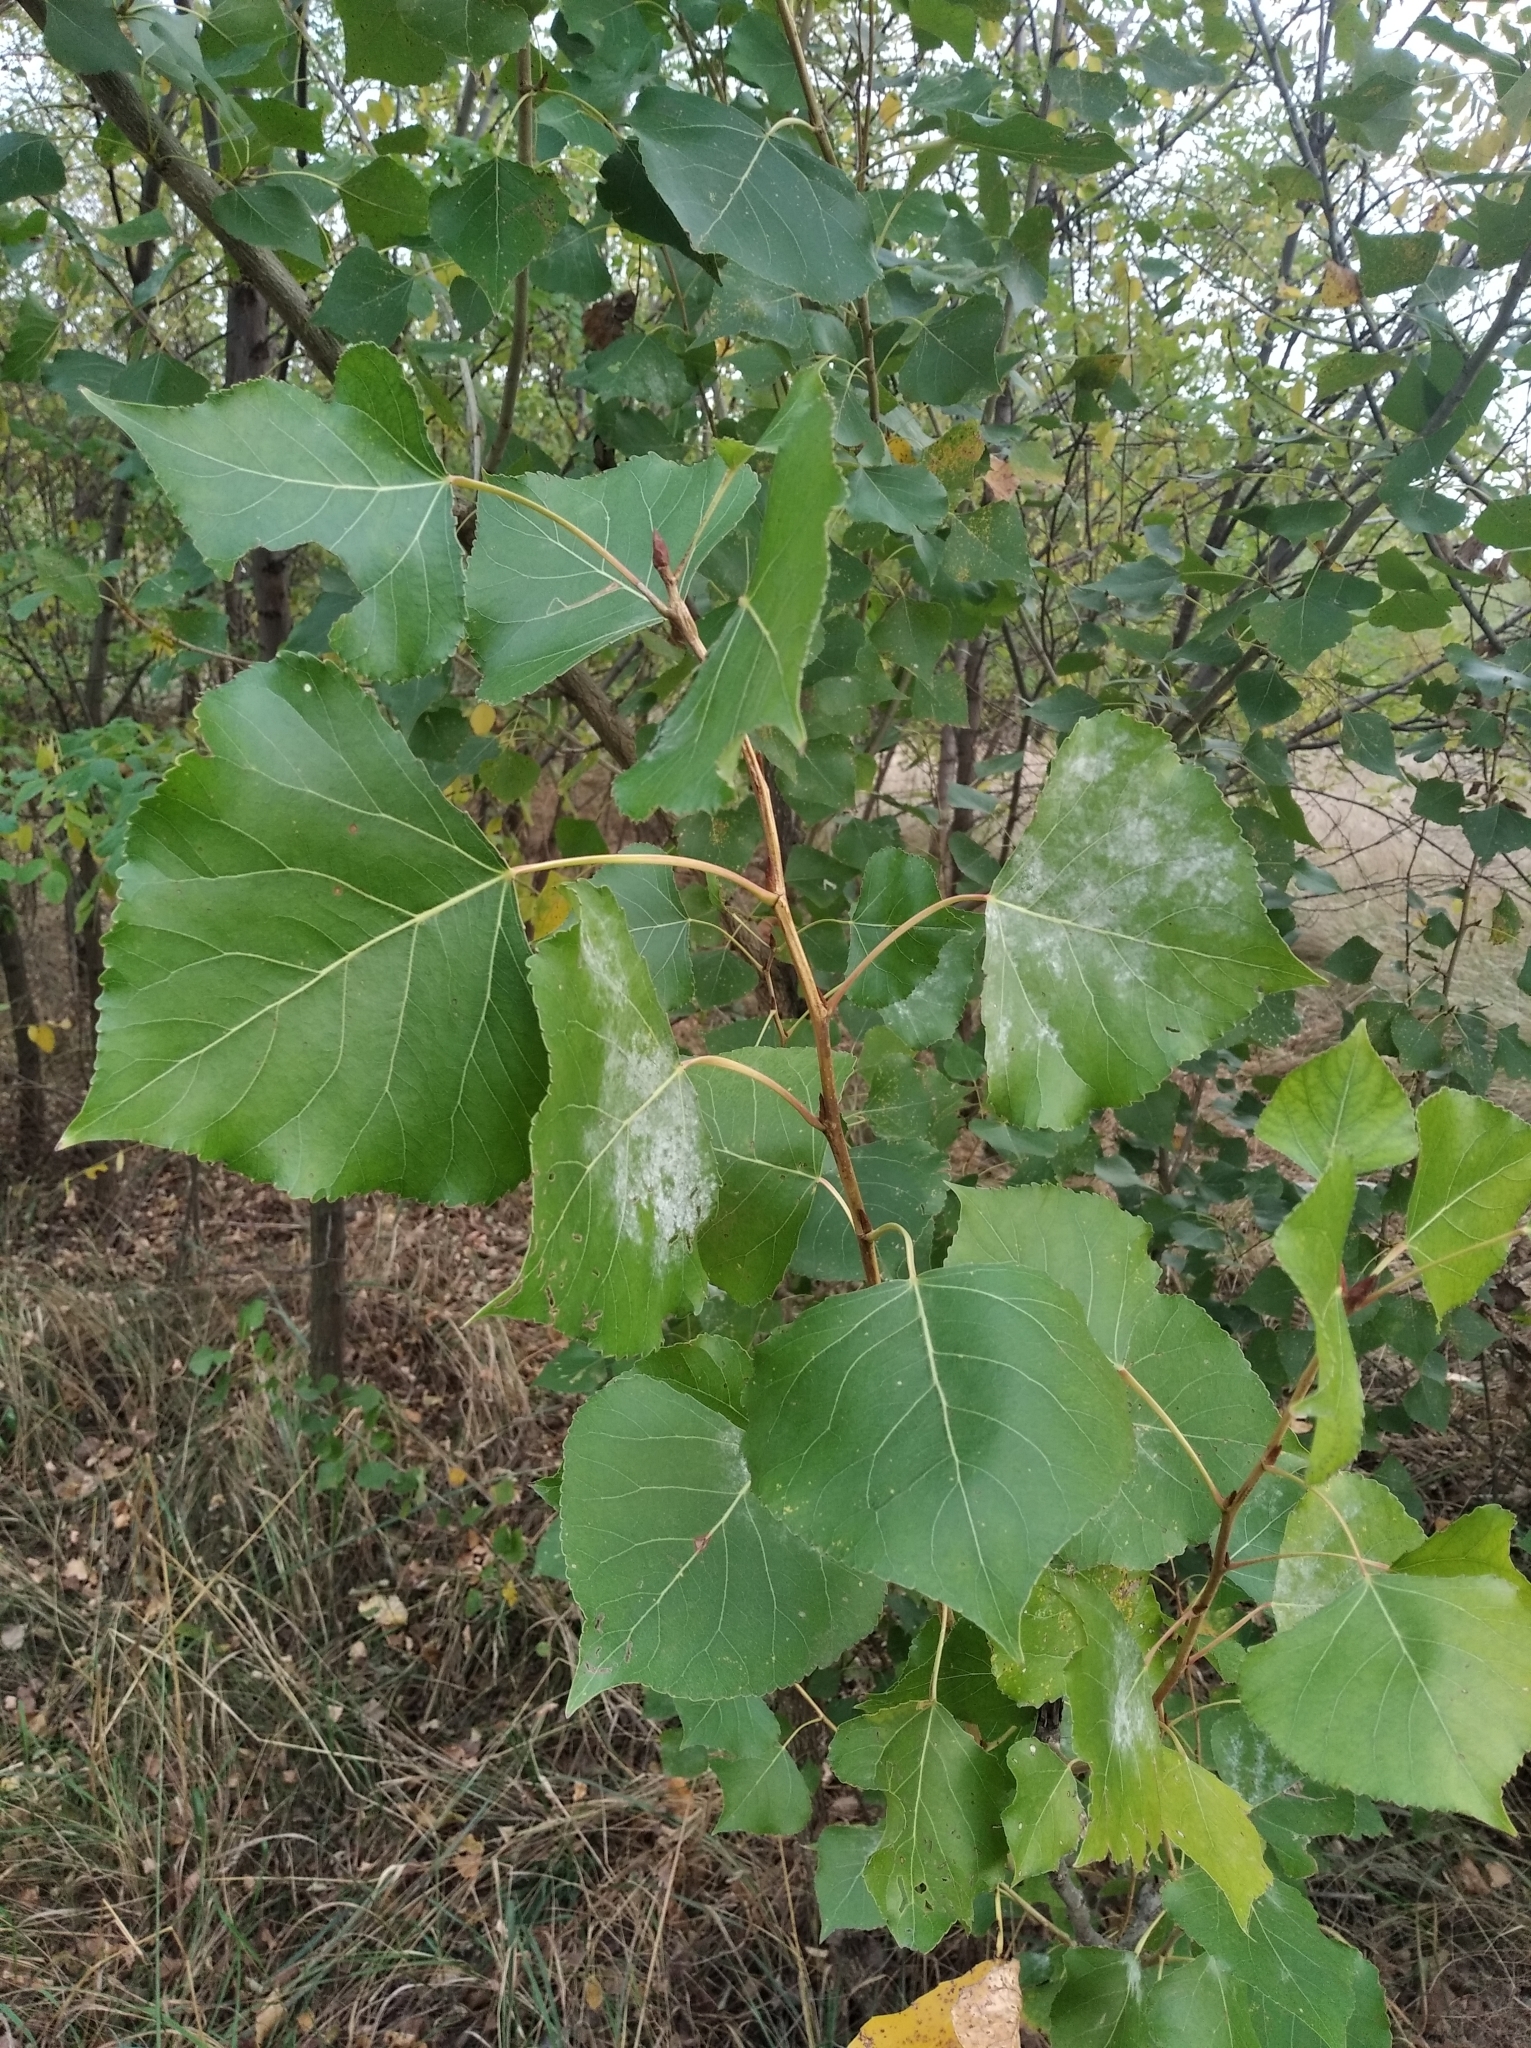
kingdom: Plantae
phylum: Tracheophyta
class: Magnoliopsida
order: Malpighiales
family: Salicaceae
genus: Populus
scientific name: Populus nigra
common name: Black poplar
